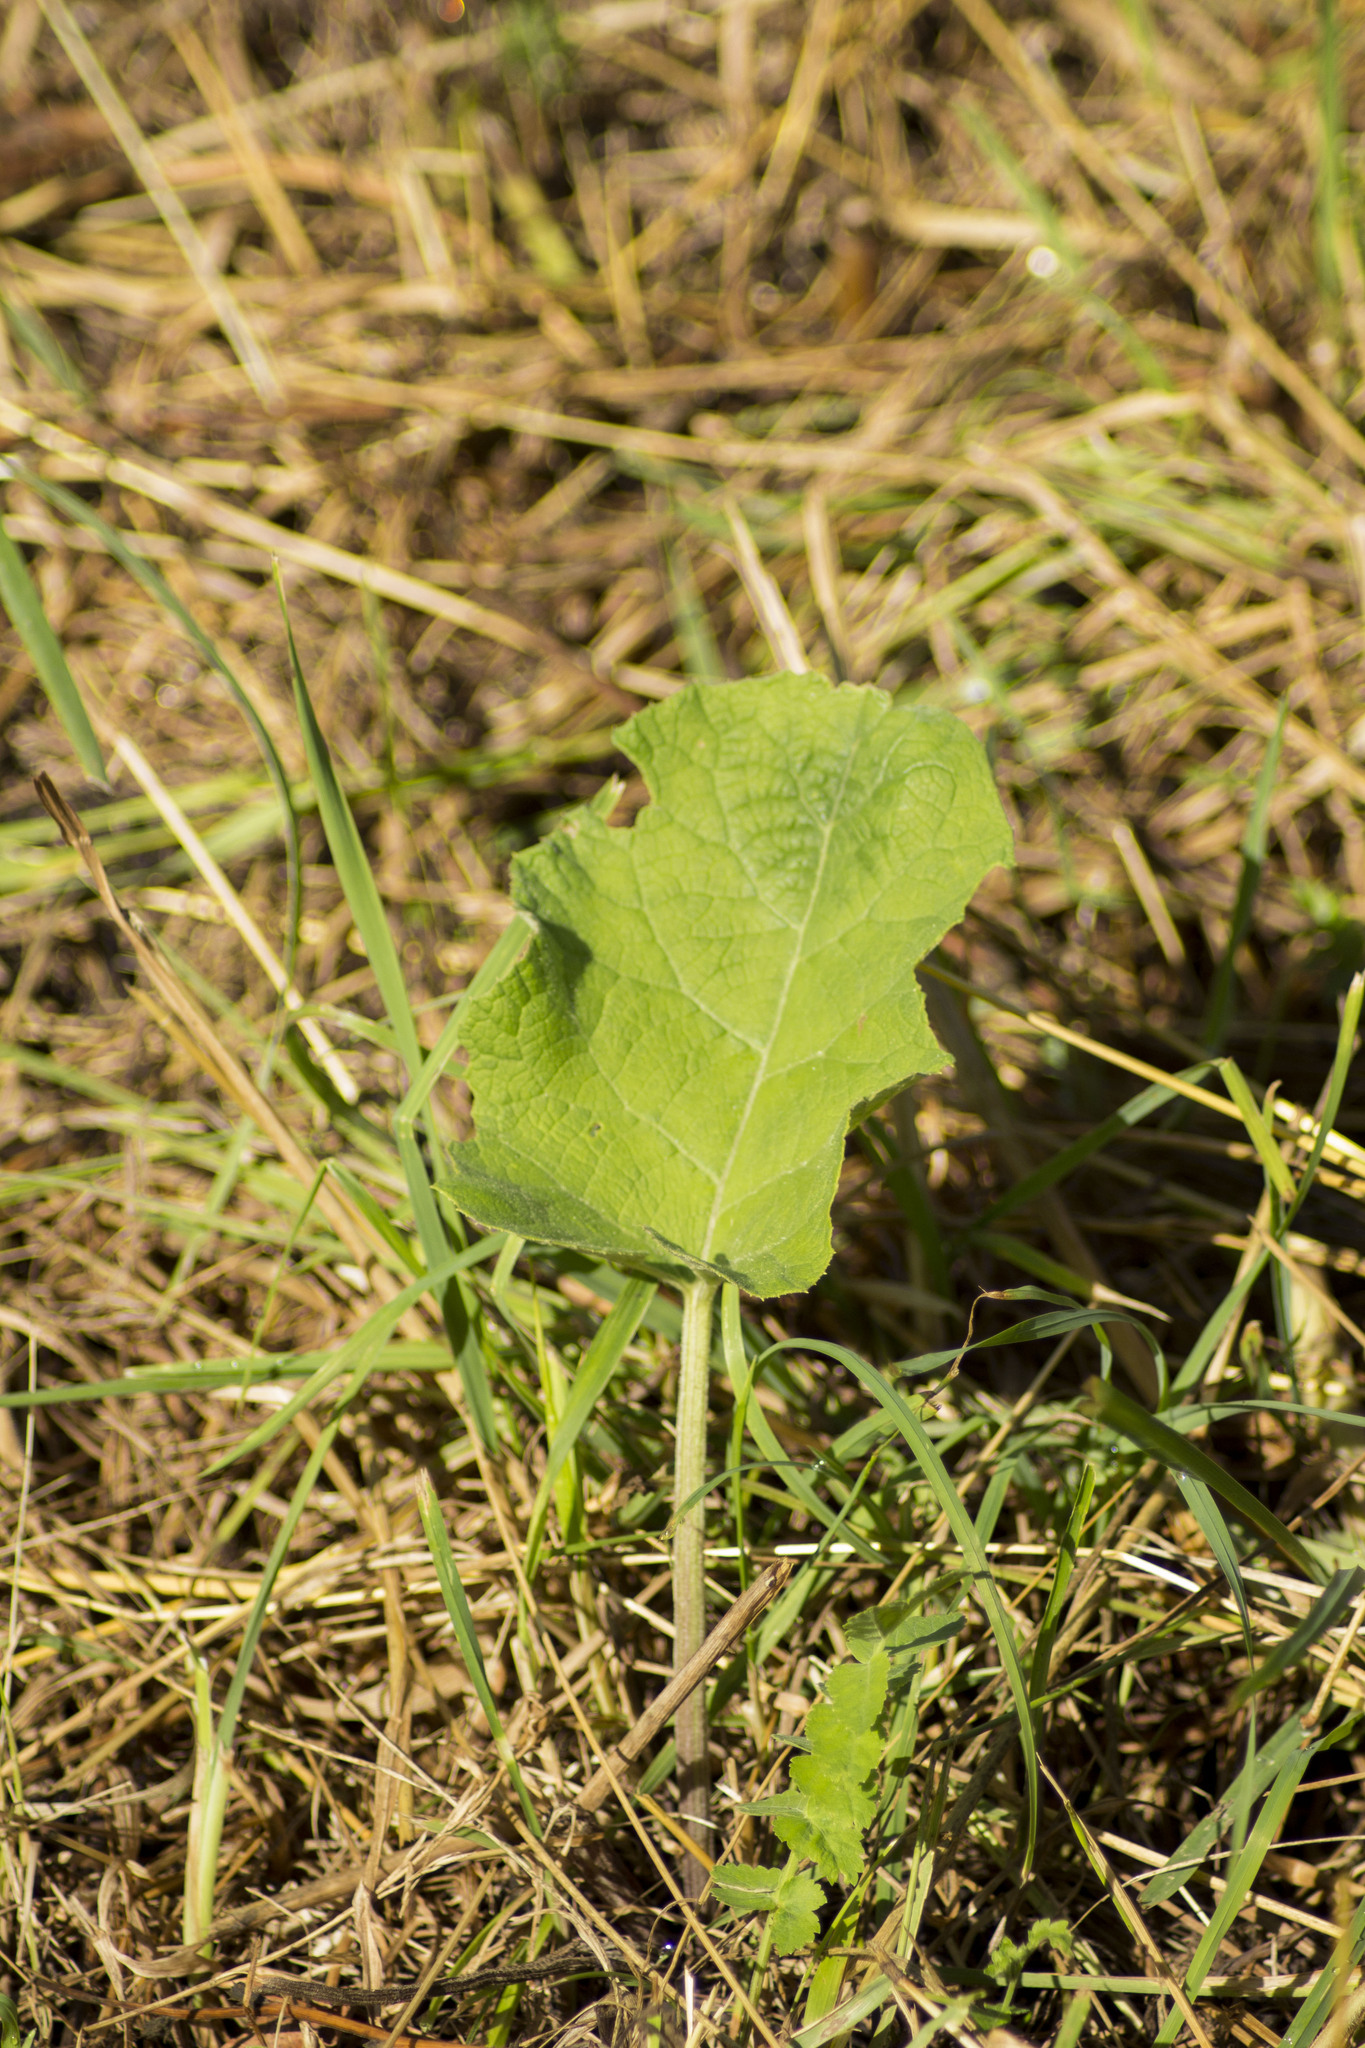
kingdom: Plantae
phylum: Tracheophyta
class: Magnoliopsida
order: Asterales
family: Asteraceae
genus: Arctium
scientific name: Arctium
